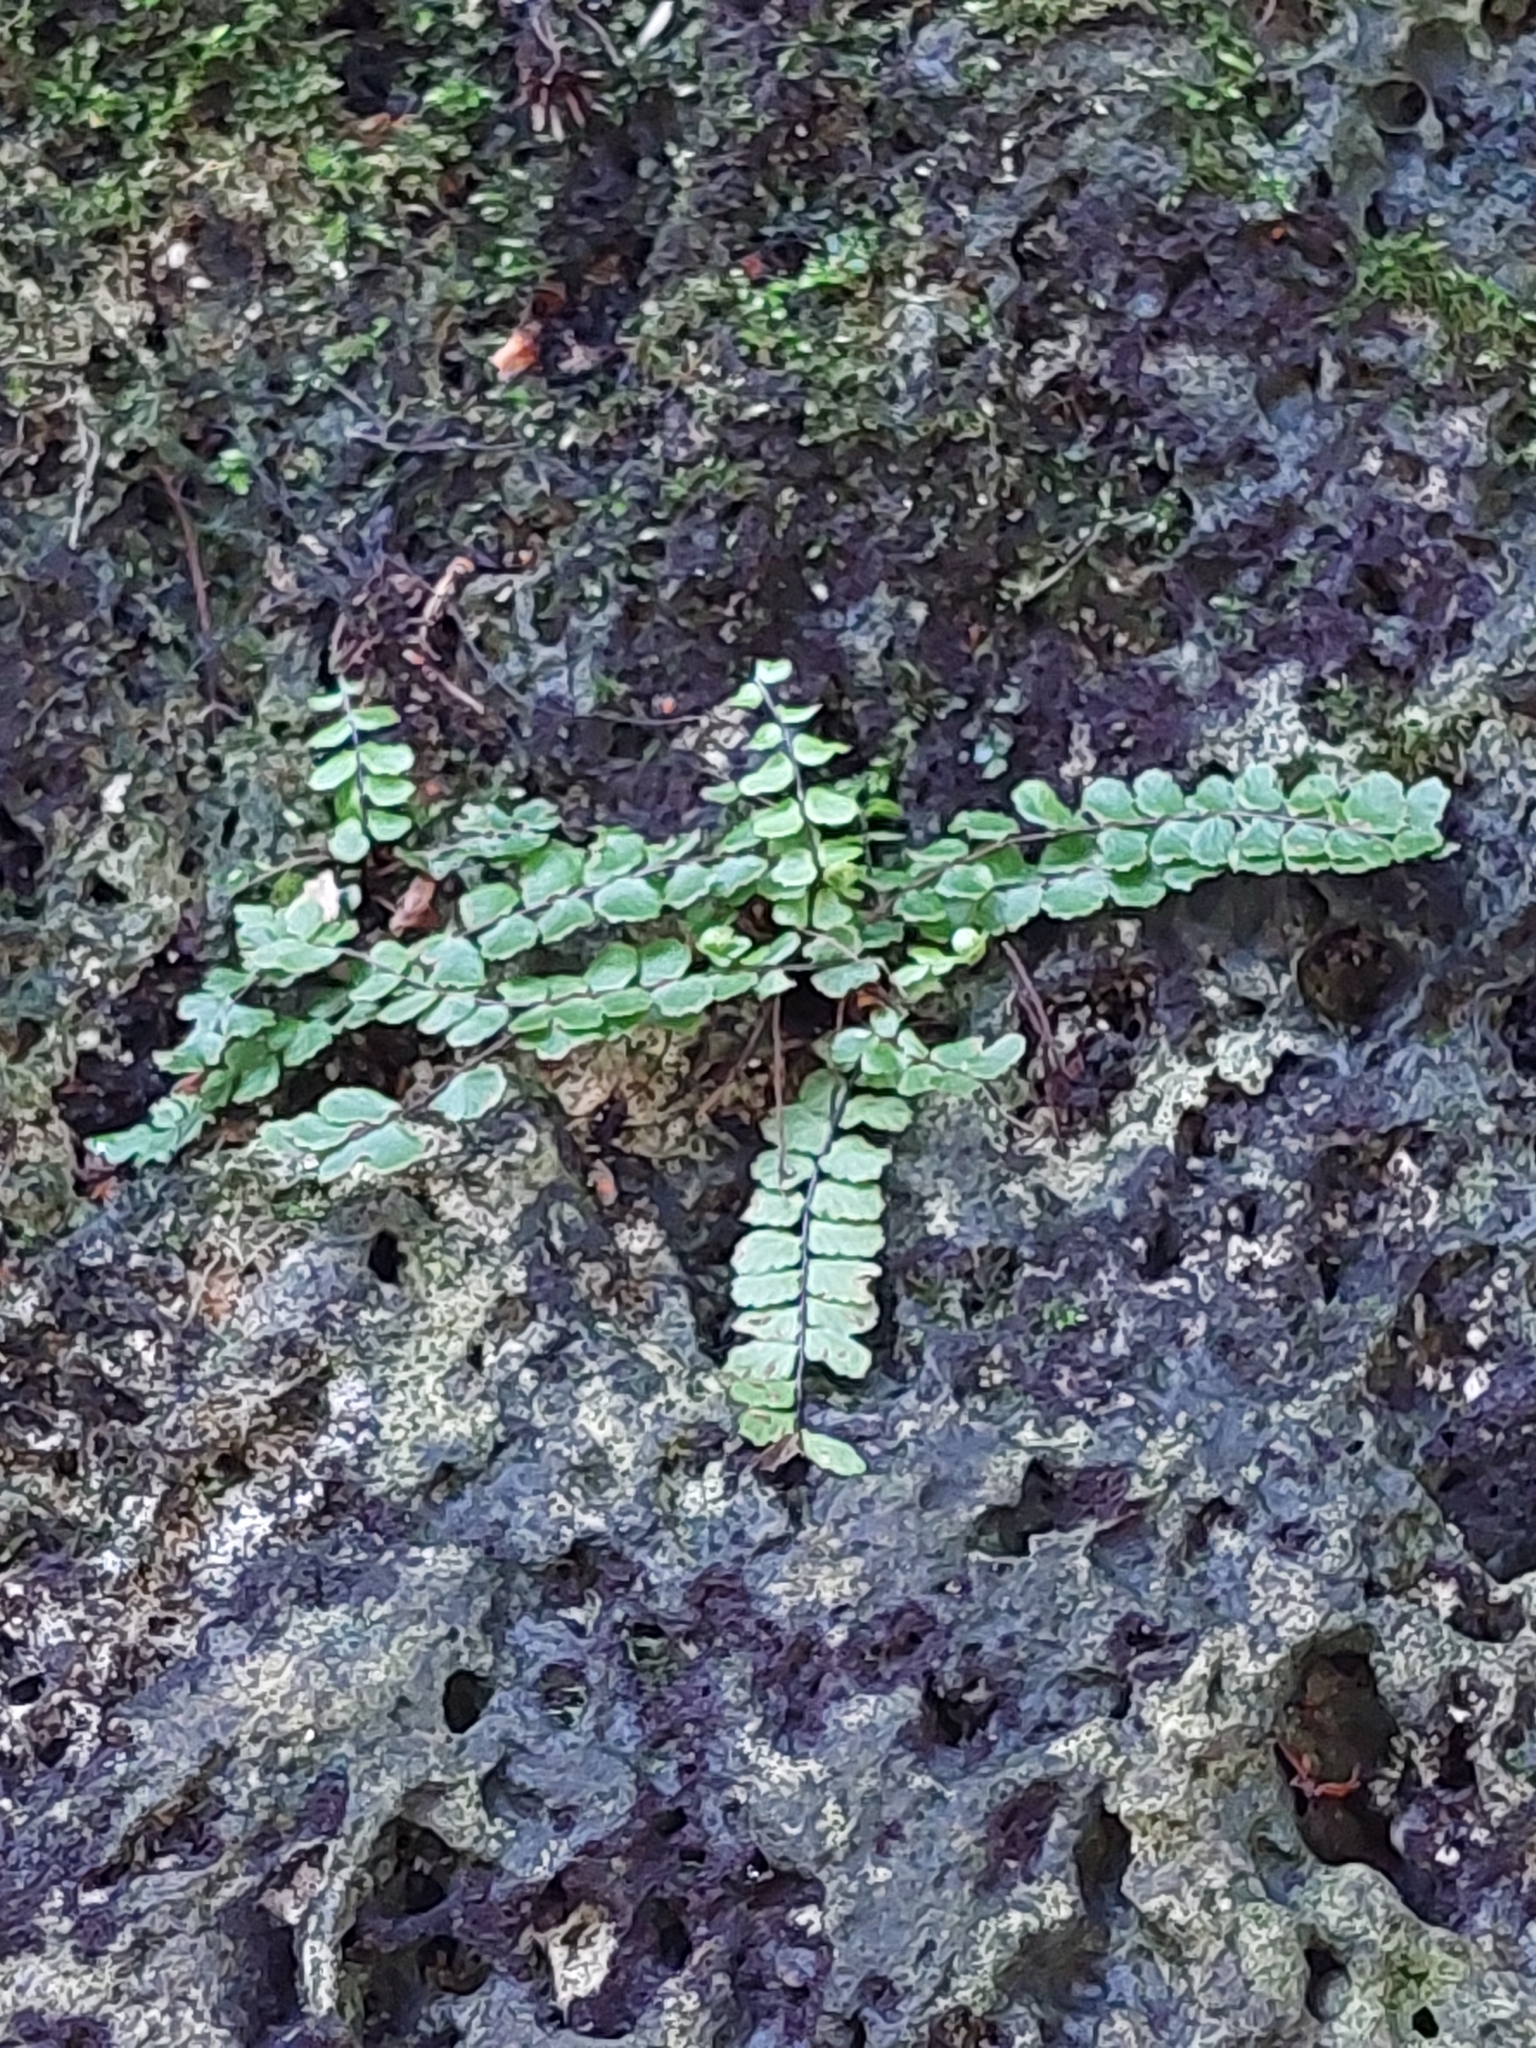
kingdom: Plantae
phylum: Tracheophyta
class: Polypodiopsida
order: Polypodiales
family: Aspleniaceae
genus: Asplenium
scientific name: Asplenium trichomanes
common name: Maidenhair spleenwort
